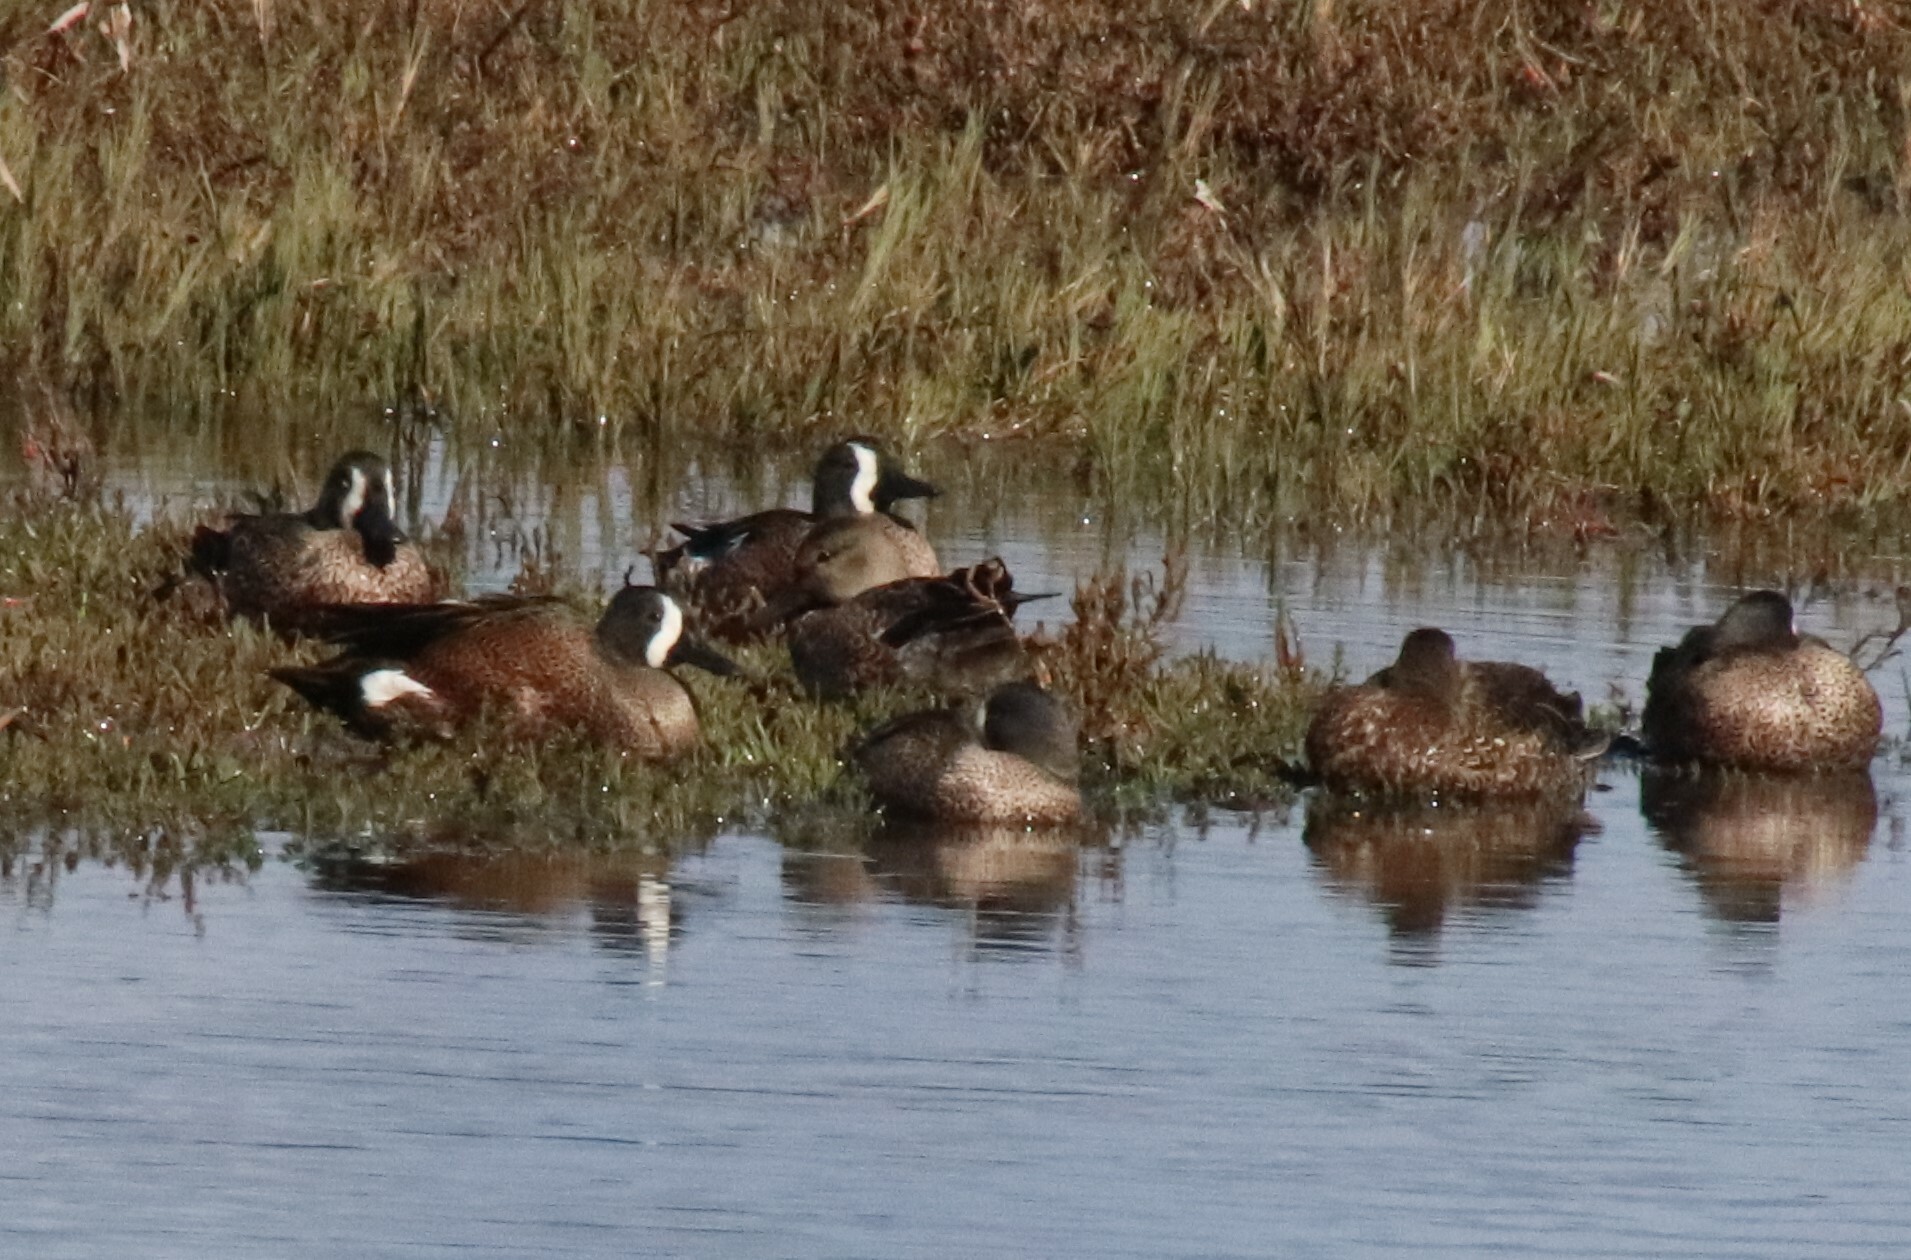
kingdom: Animalia
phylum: Chordata
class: Aves
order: Anseriformes
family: Anatidae
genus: Spatula
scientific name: Spatula discors
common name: Blue-winged teal
